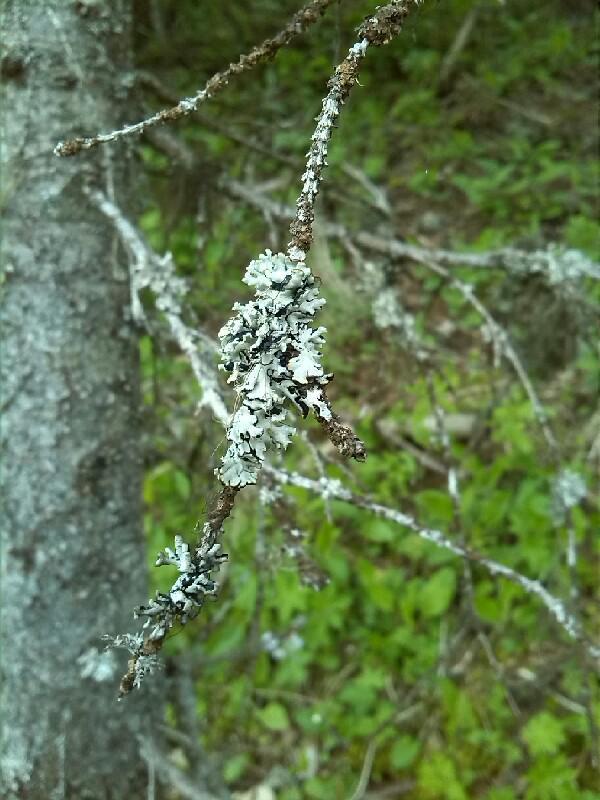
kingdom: Fungi
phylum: Ascomycota
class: Lecanoromycetes
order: Lecanorales
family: Parmeliaceae
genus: Hypogymnia
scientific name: Hypogymnia physodes
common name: Dark crottle
